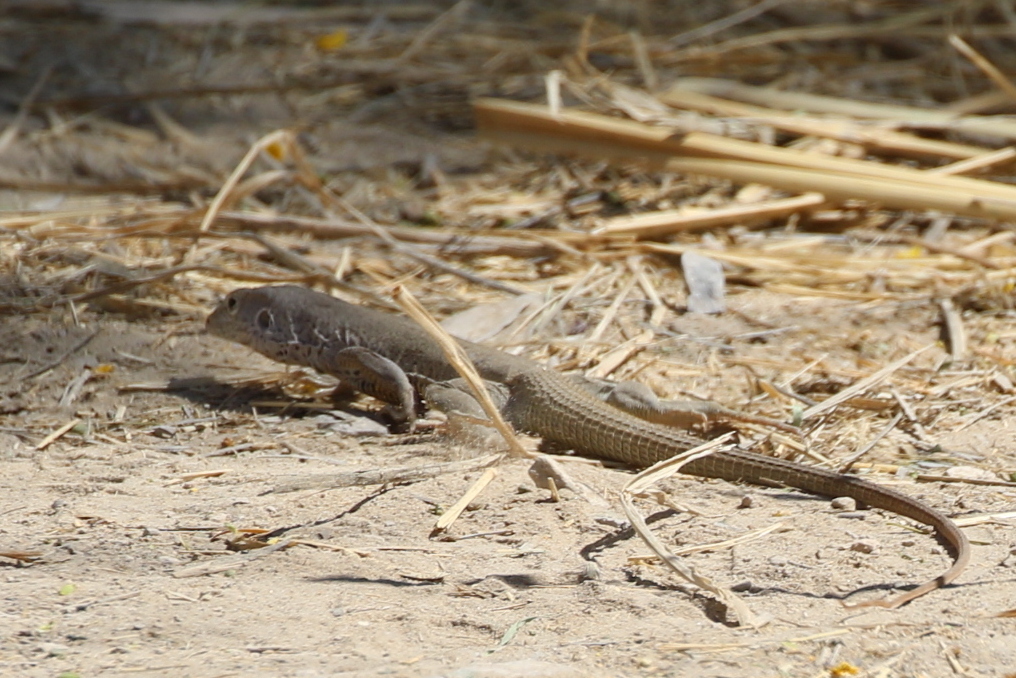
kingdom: Animalia
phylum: Chordata
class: Squamata
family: Teiidae
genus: Aspidoscelis
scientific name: Aspidoscelis marmoratus
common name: Eastern marbled whiptail [reticuloriens]
